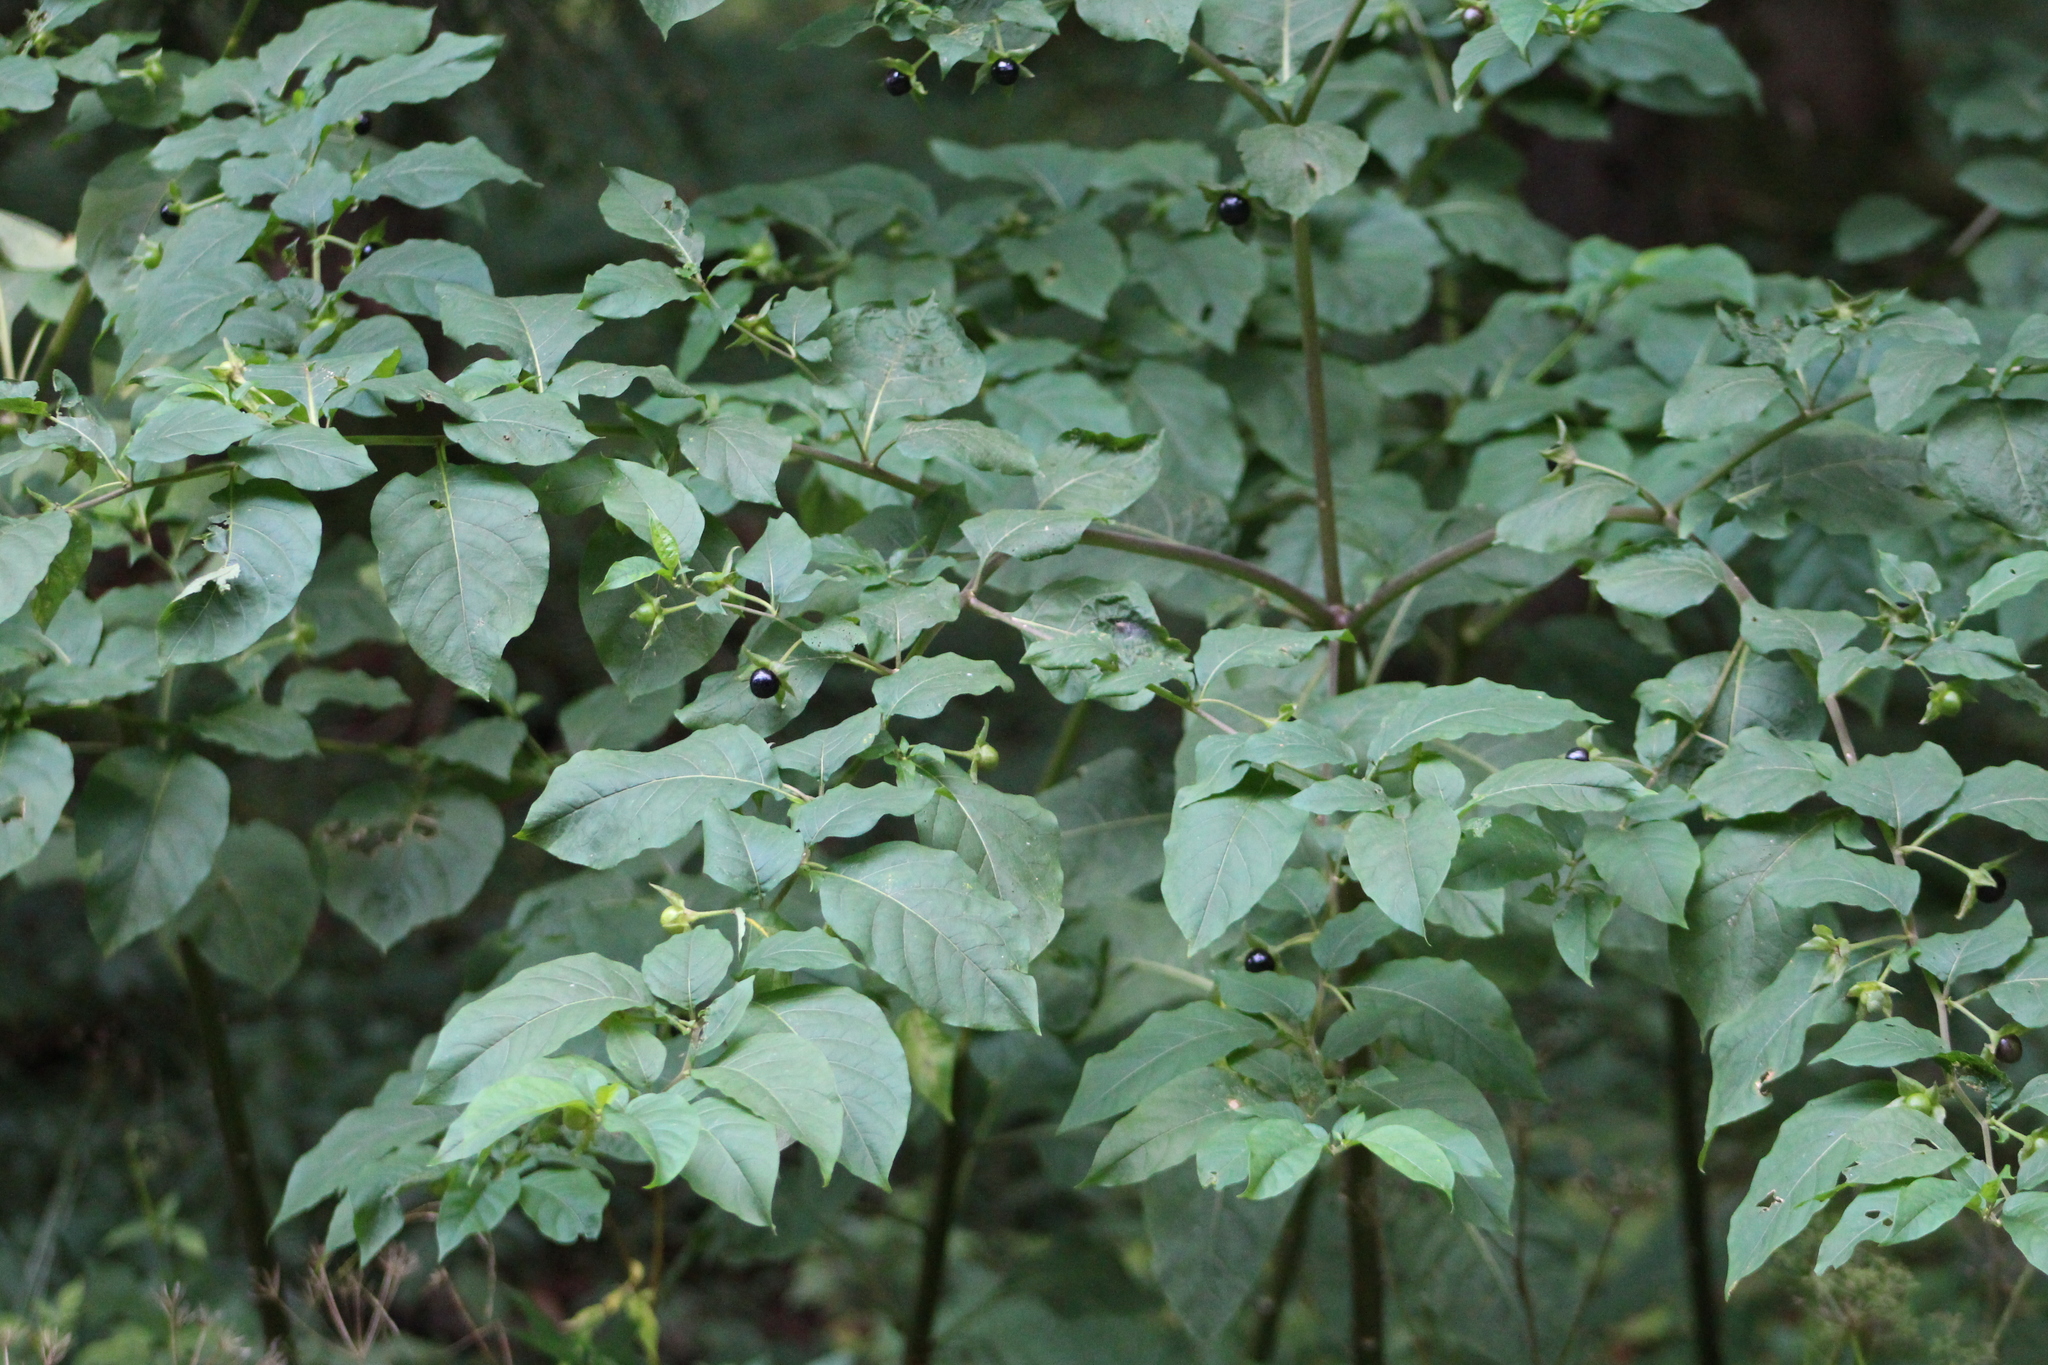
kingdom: Plantae
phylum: Tracheophyta
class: Magnoliopsida
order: Solanales
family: Solanaceae
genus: Atropa
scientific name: Atropa belladonna
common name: Deadly nightshade
